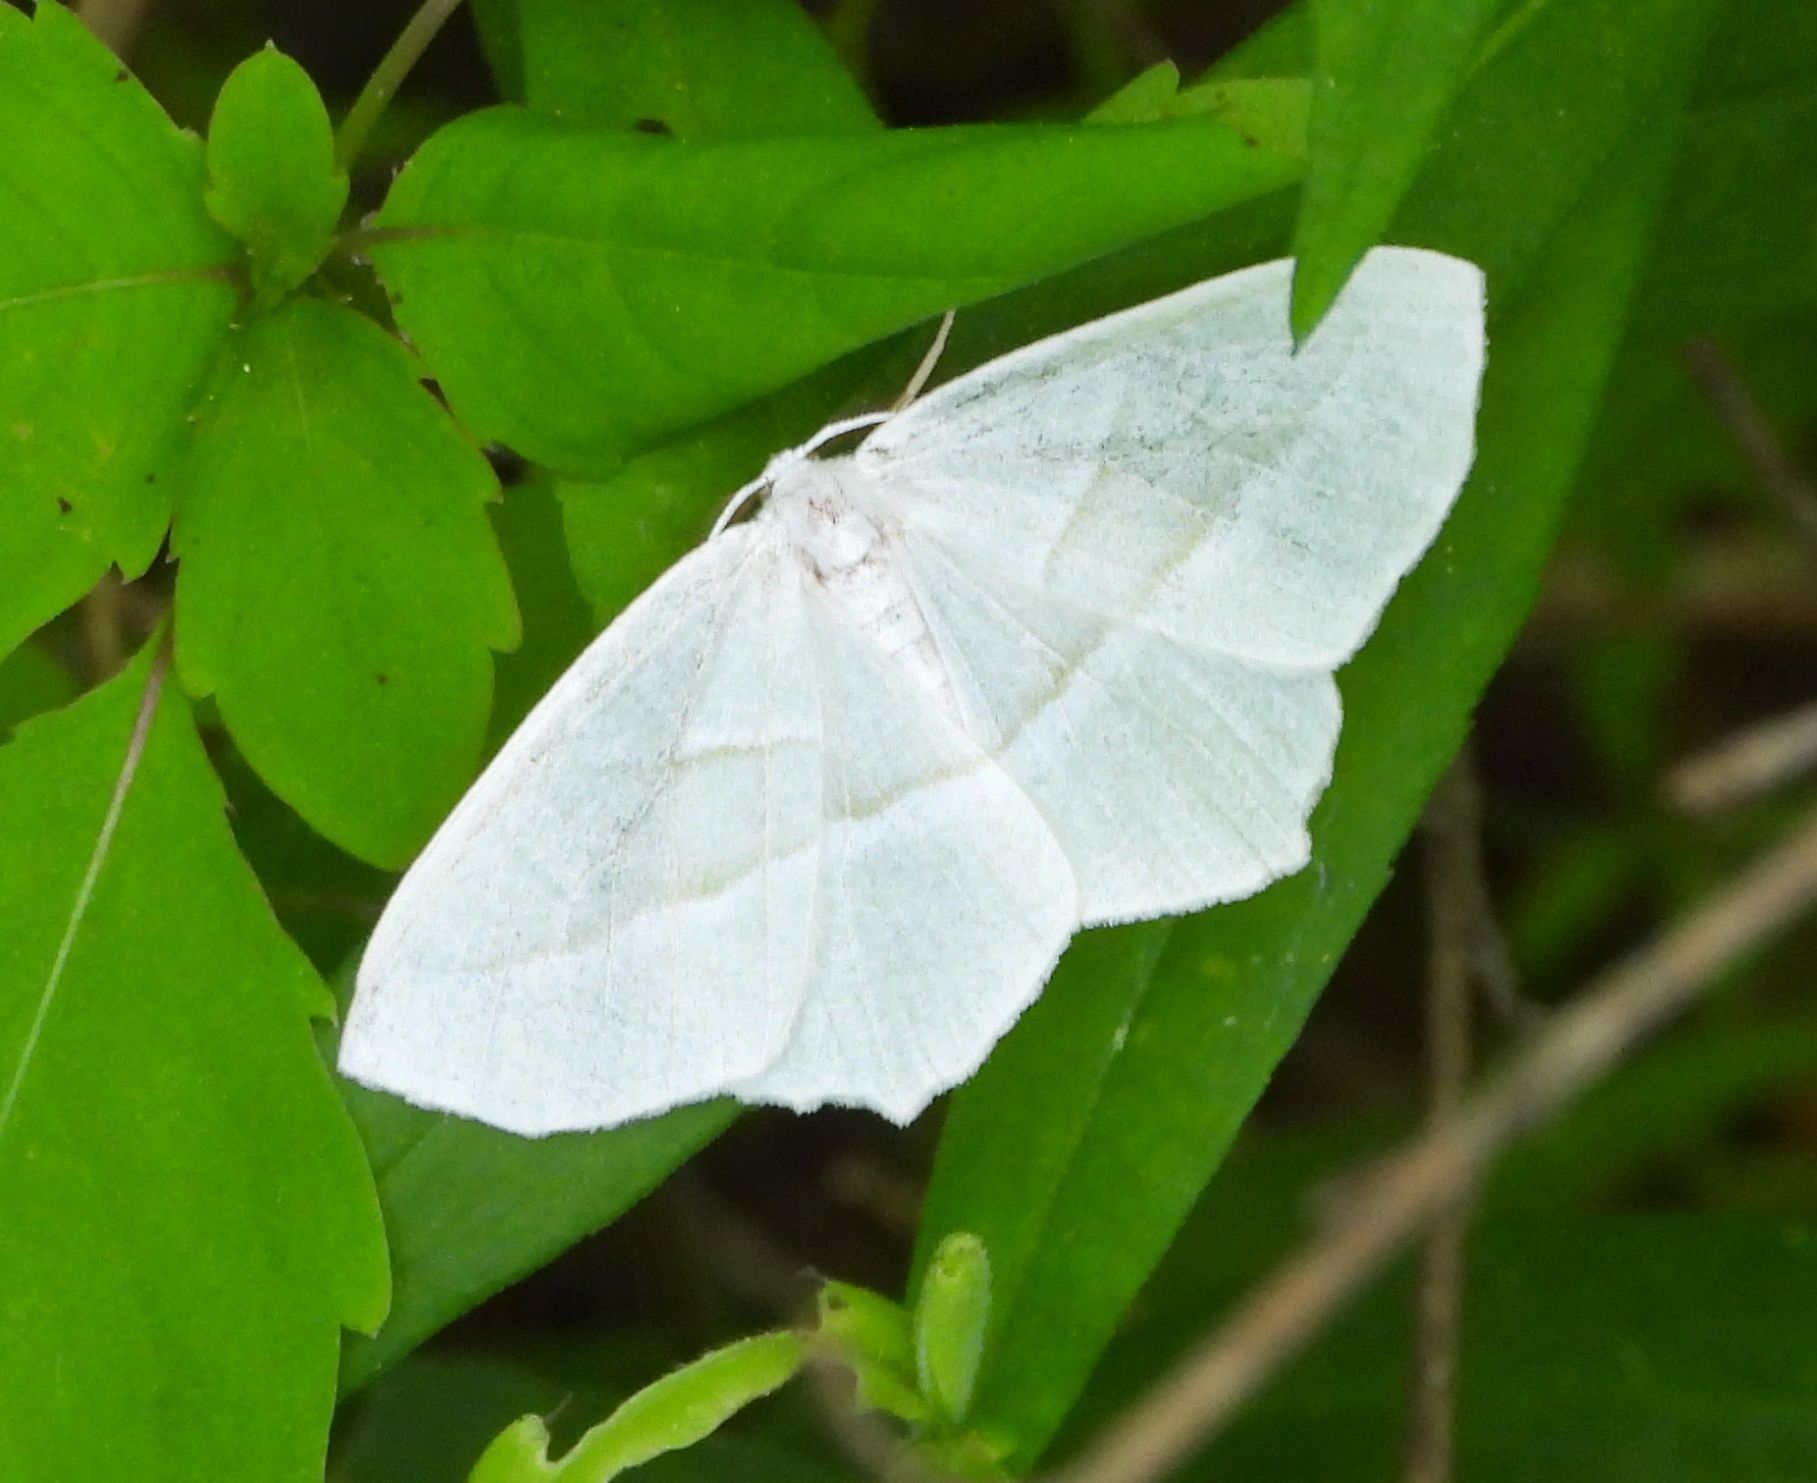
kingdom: Animalia
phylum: Arthropoda
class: Insecta
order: Lepidoptera
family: Geometridae
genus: Campaea
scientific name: Campaea perlata
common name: Fringed looper
